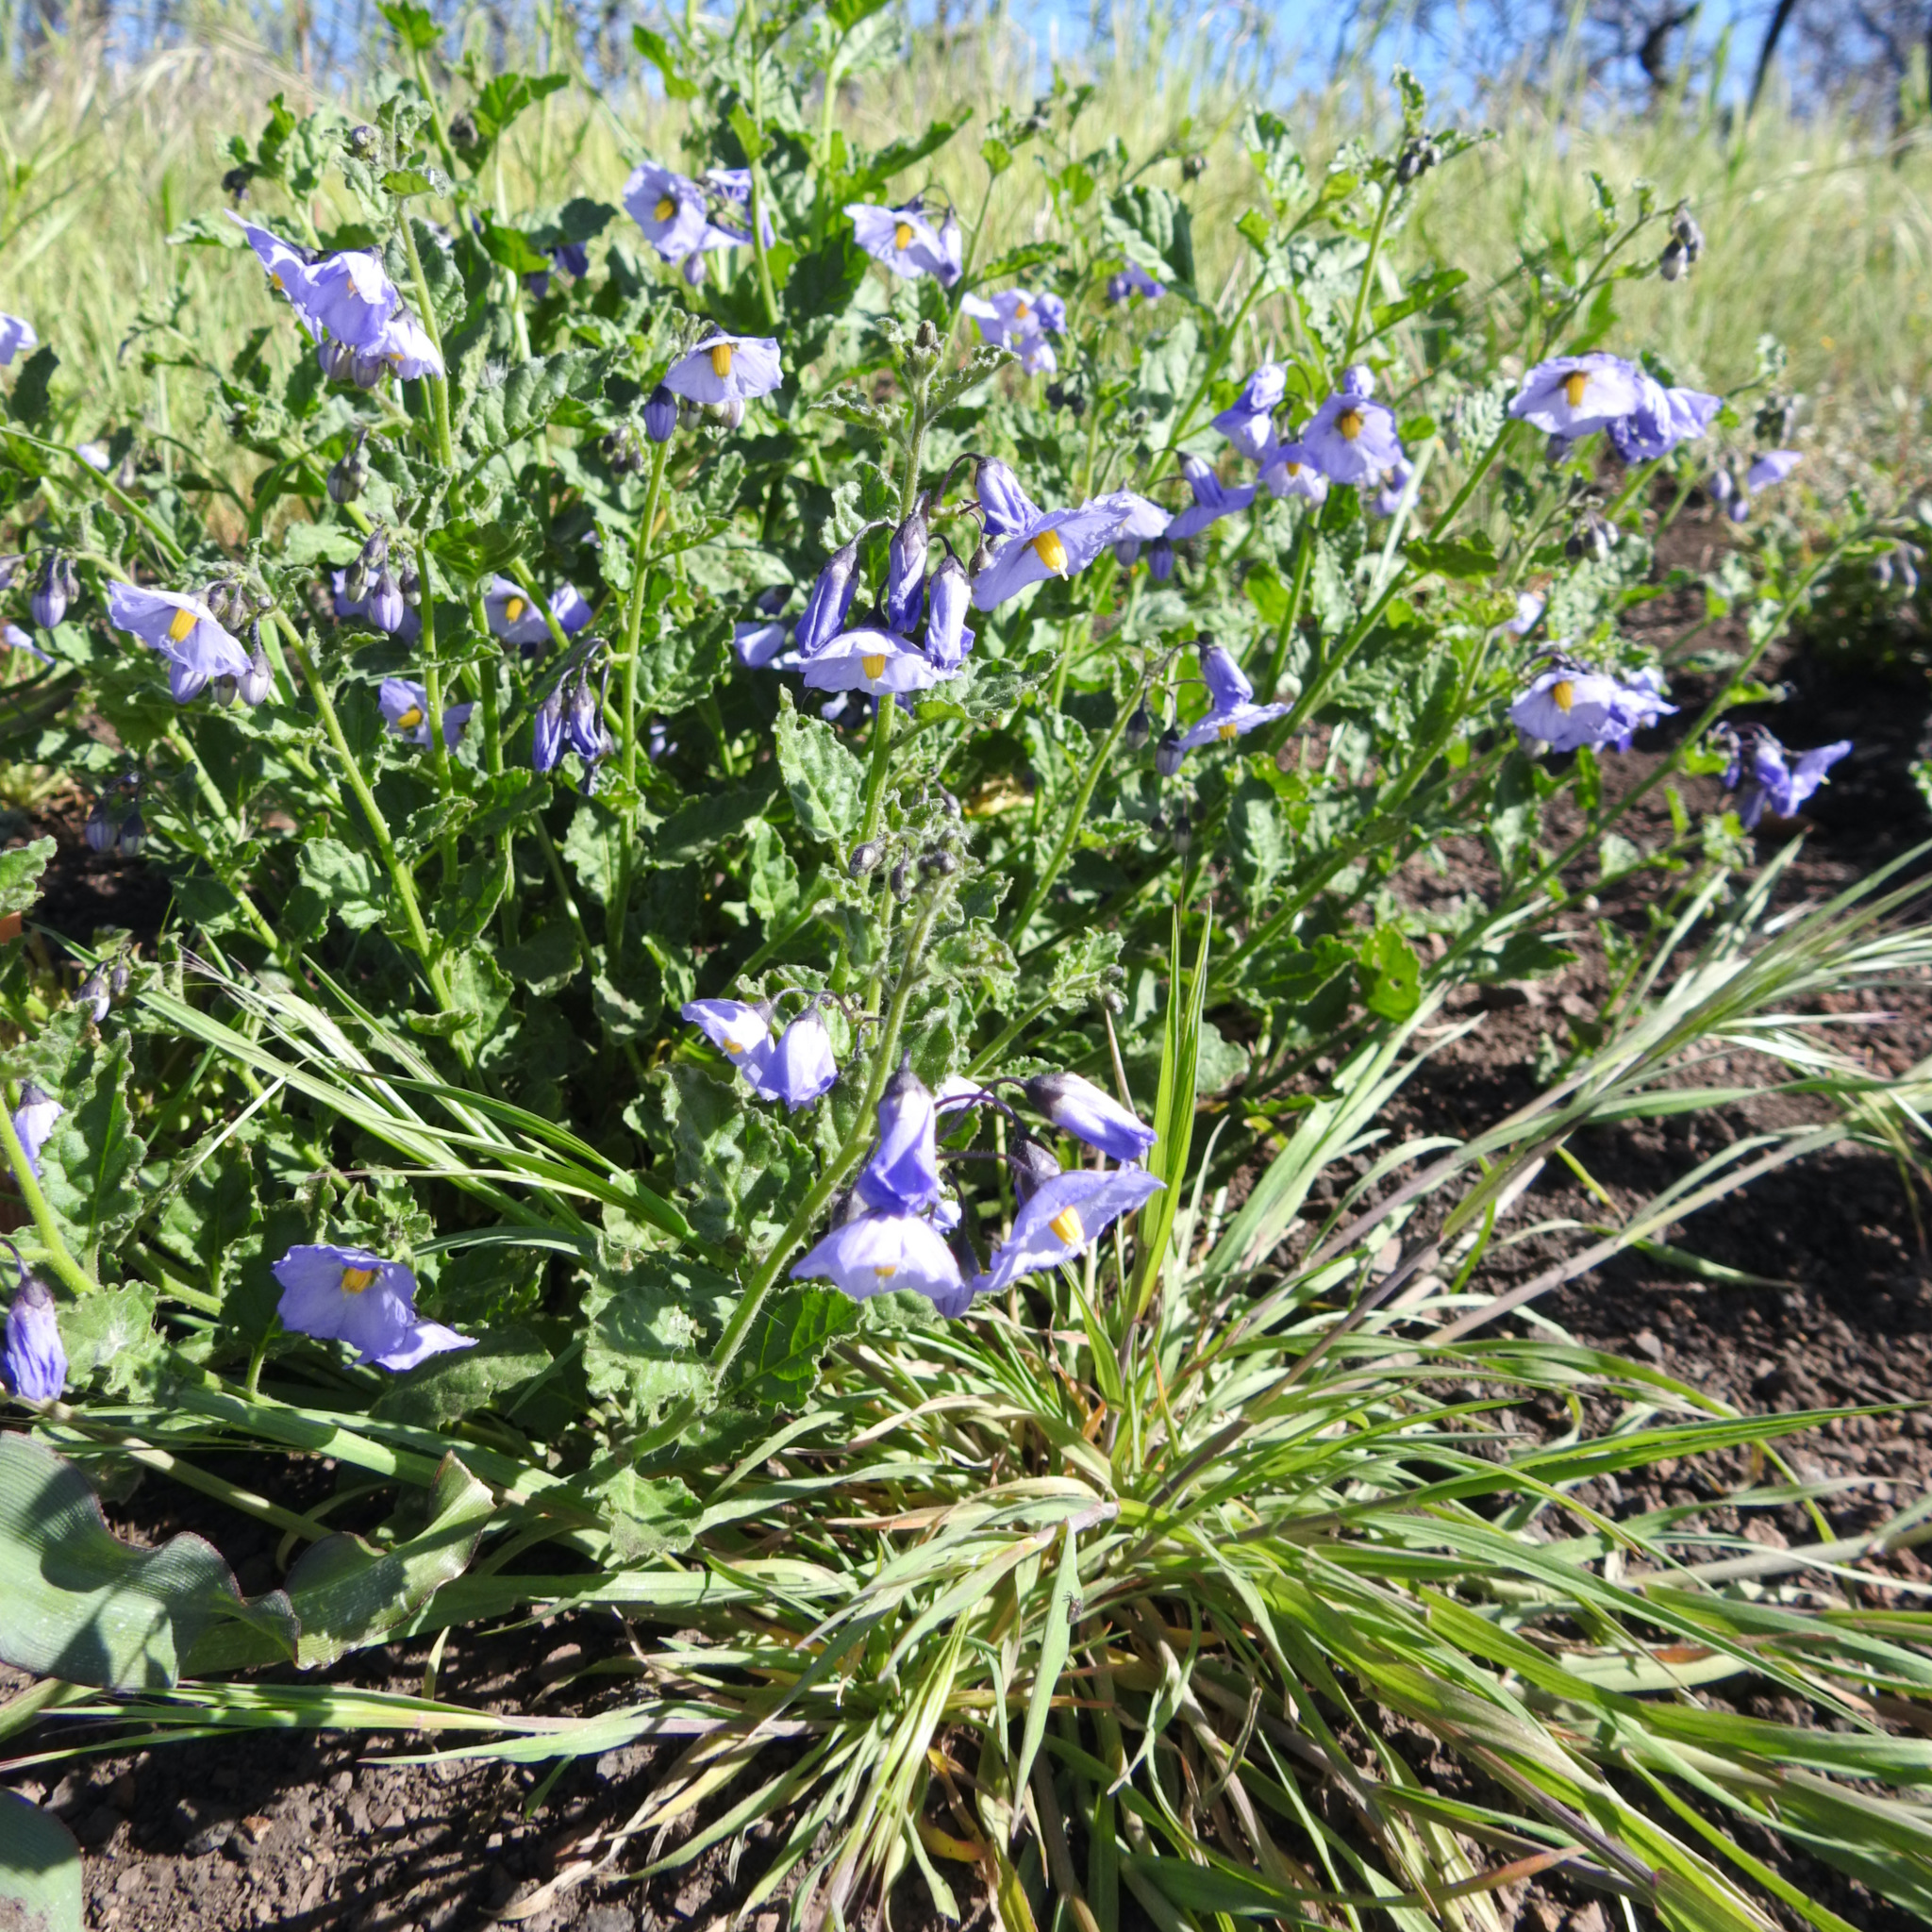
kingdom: Plantae
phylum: Tracheophyta
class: Magnoliopsida
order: Solanales
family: Solanaceae
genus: Solanum
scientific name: Solanum umbelliferum
